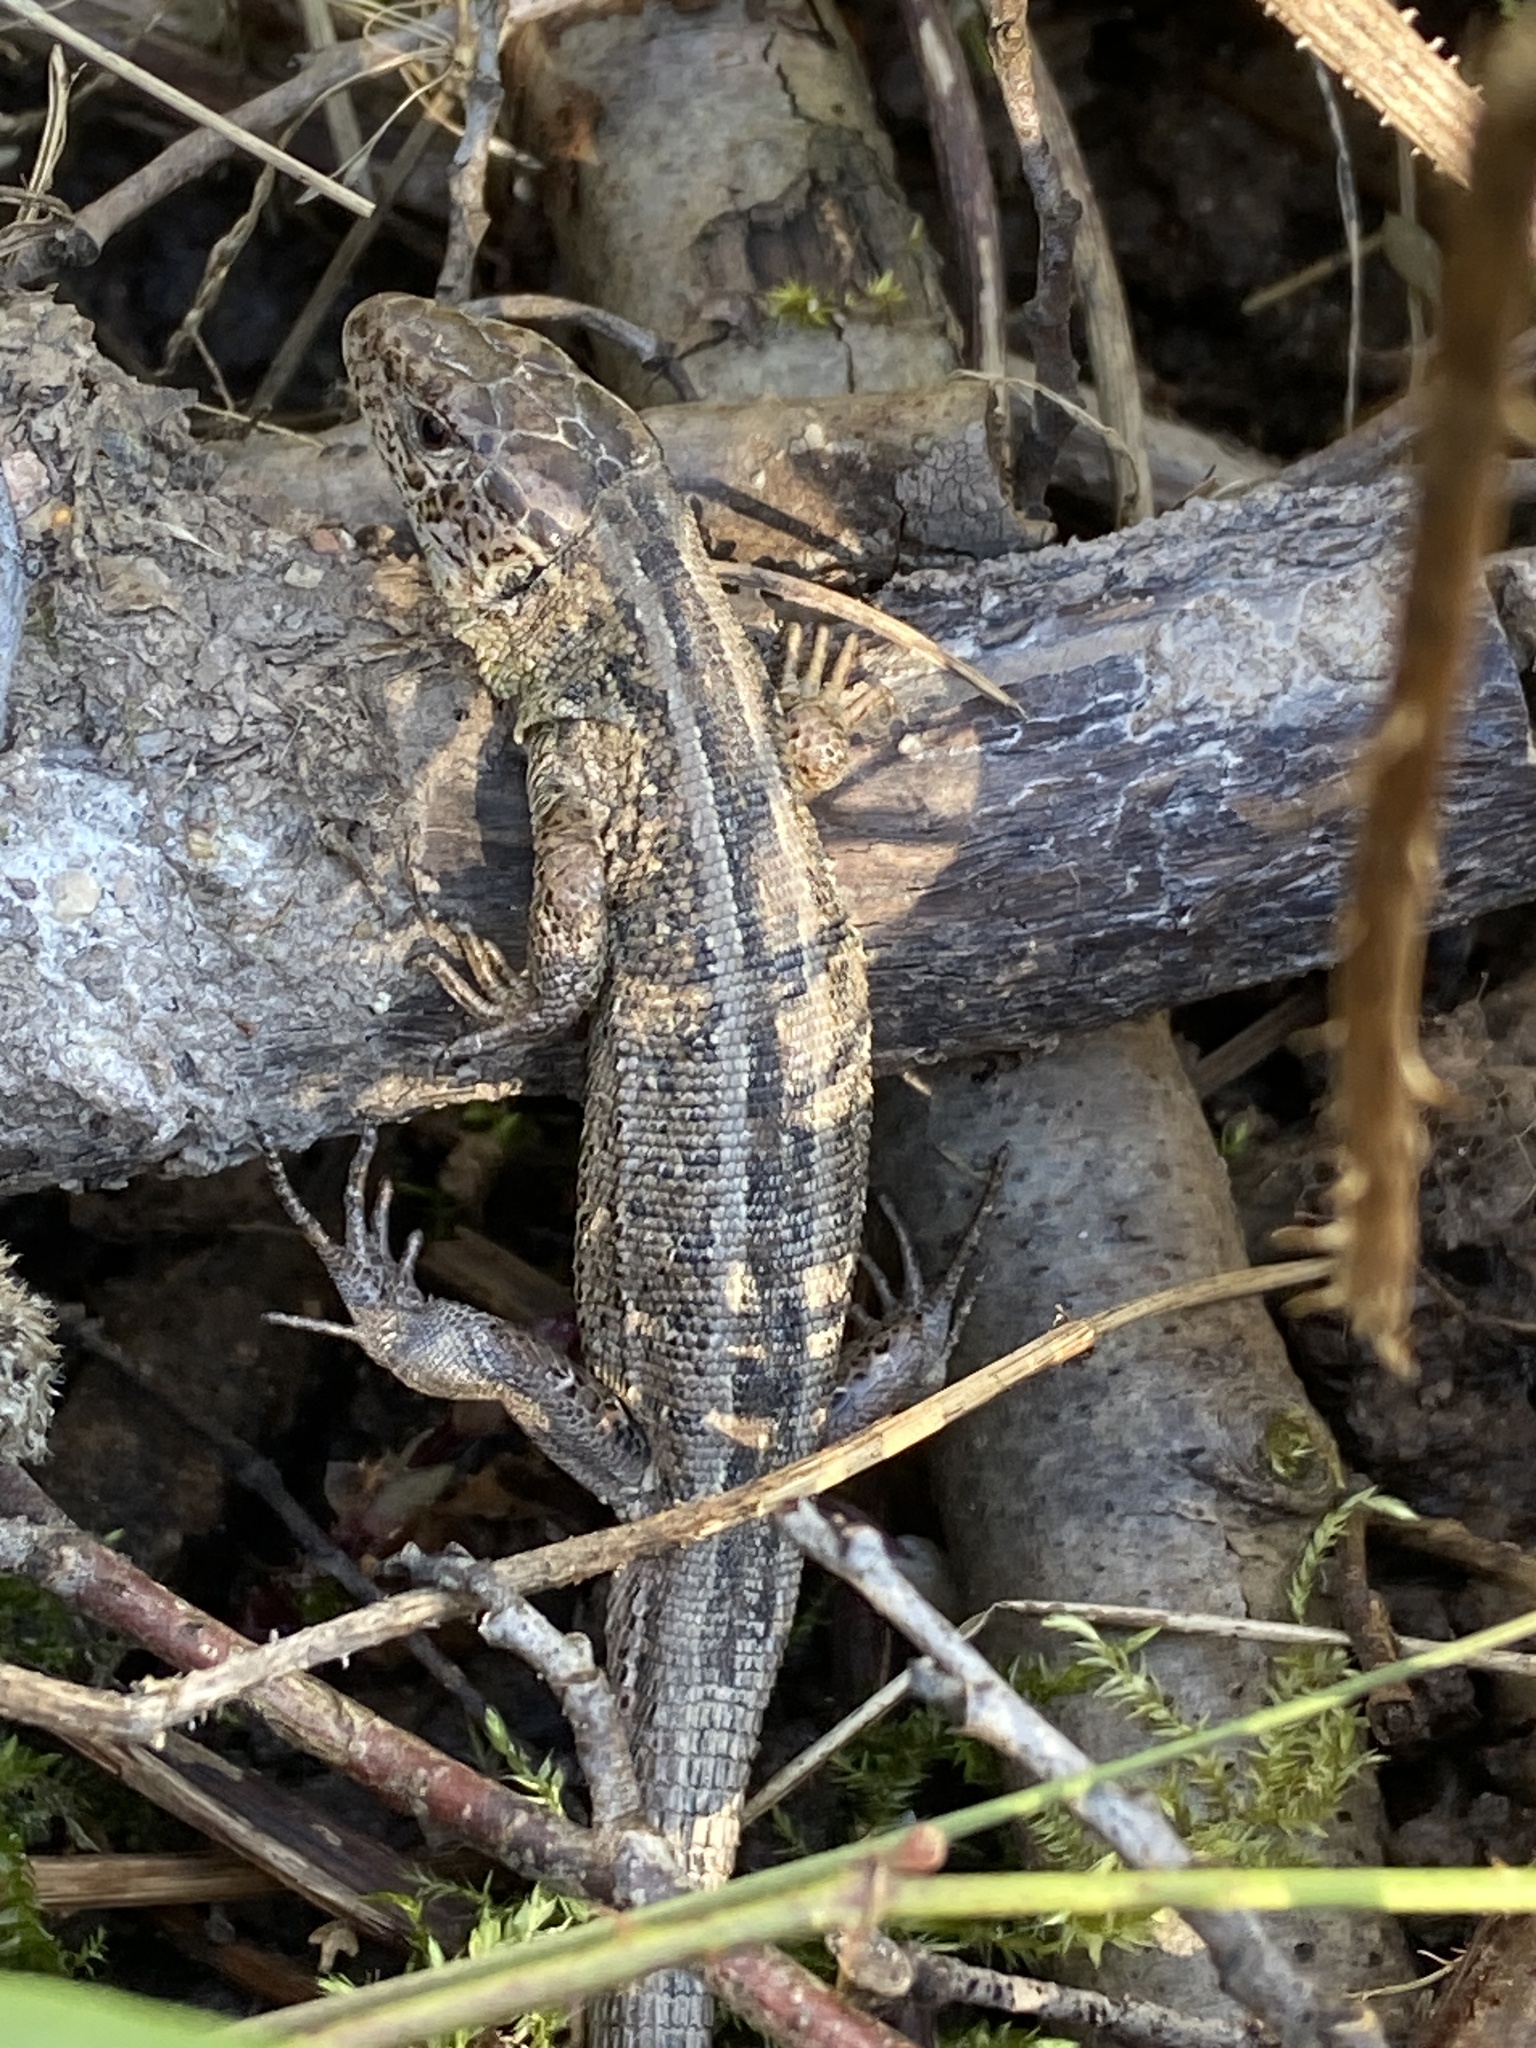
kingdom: Animalia
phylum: Chordata
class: Squamata
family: Lacertidae
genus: Lacerta
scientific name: Lacerta agilis
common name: Sand lizard
